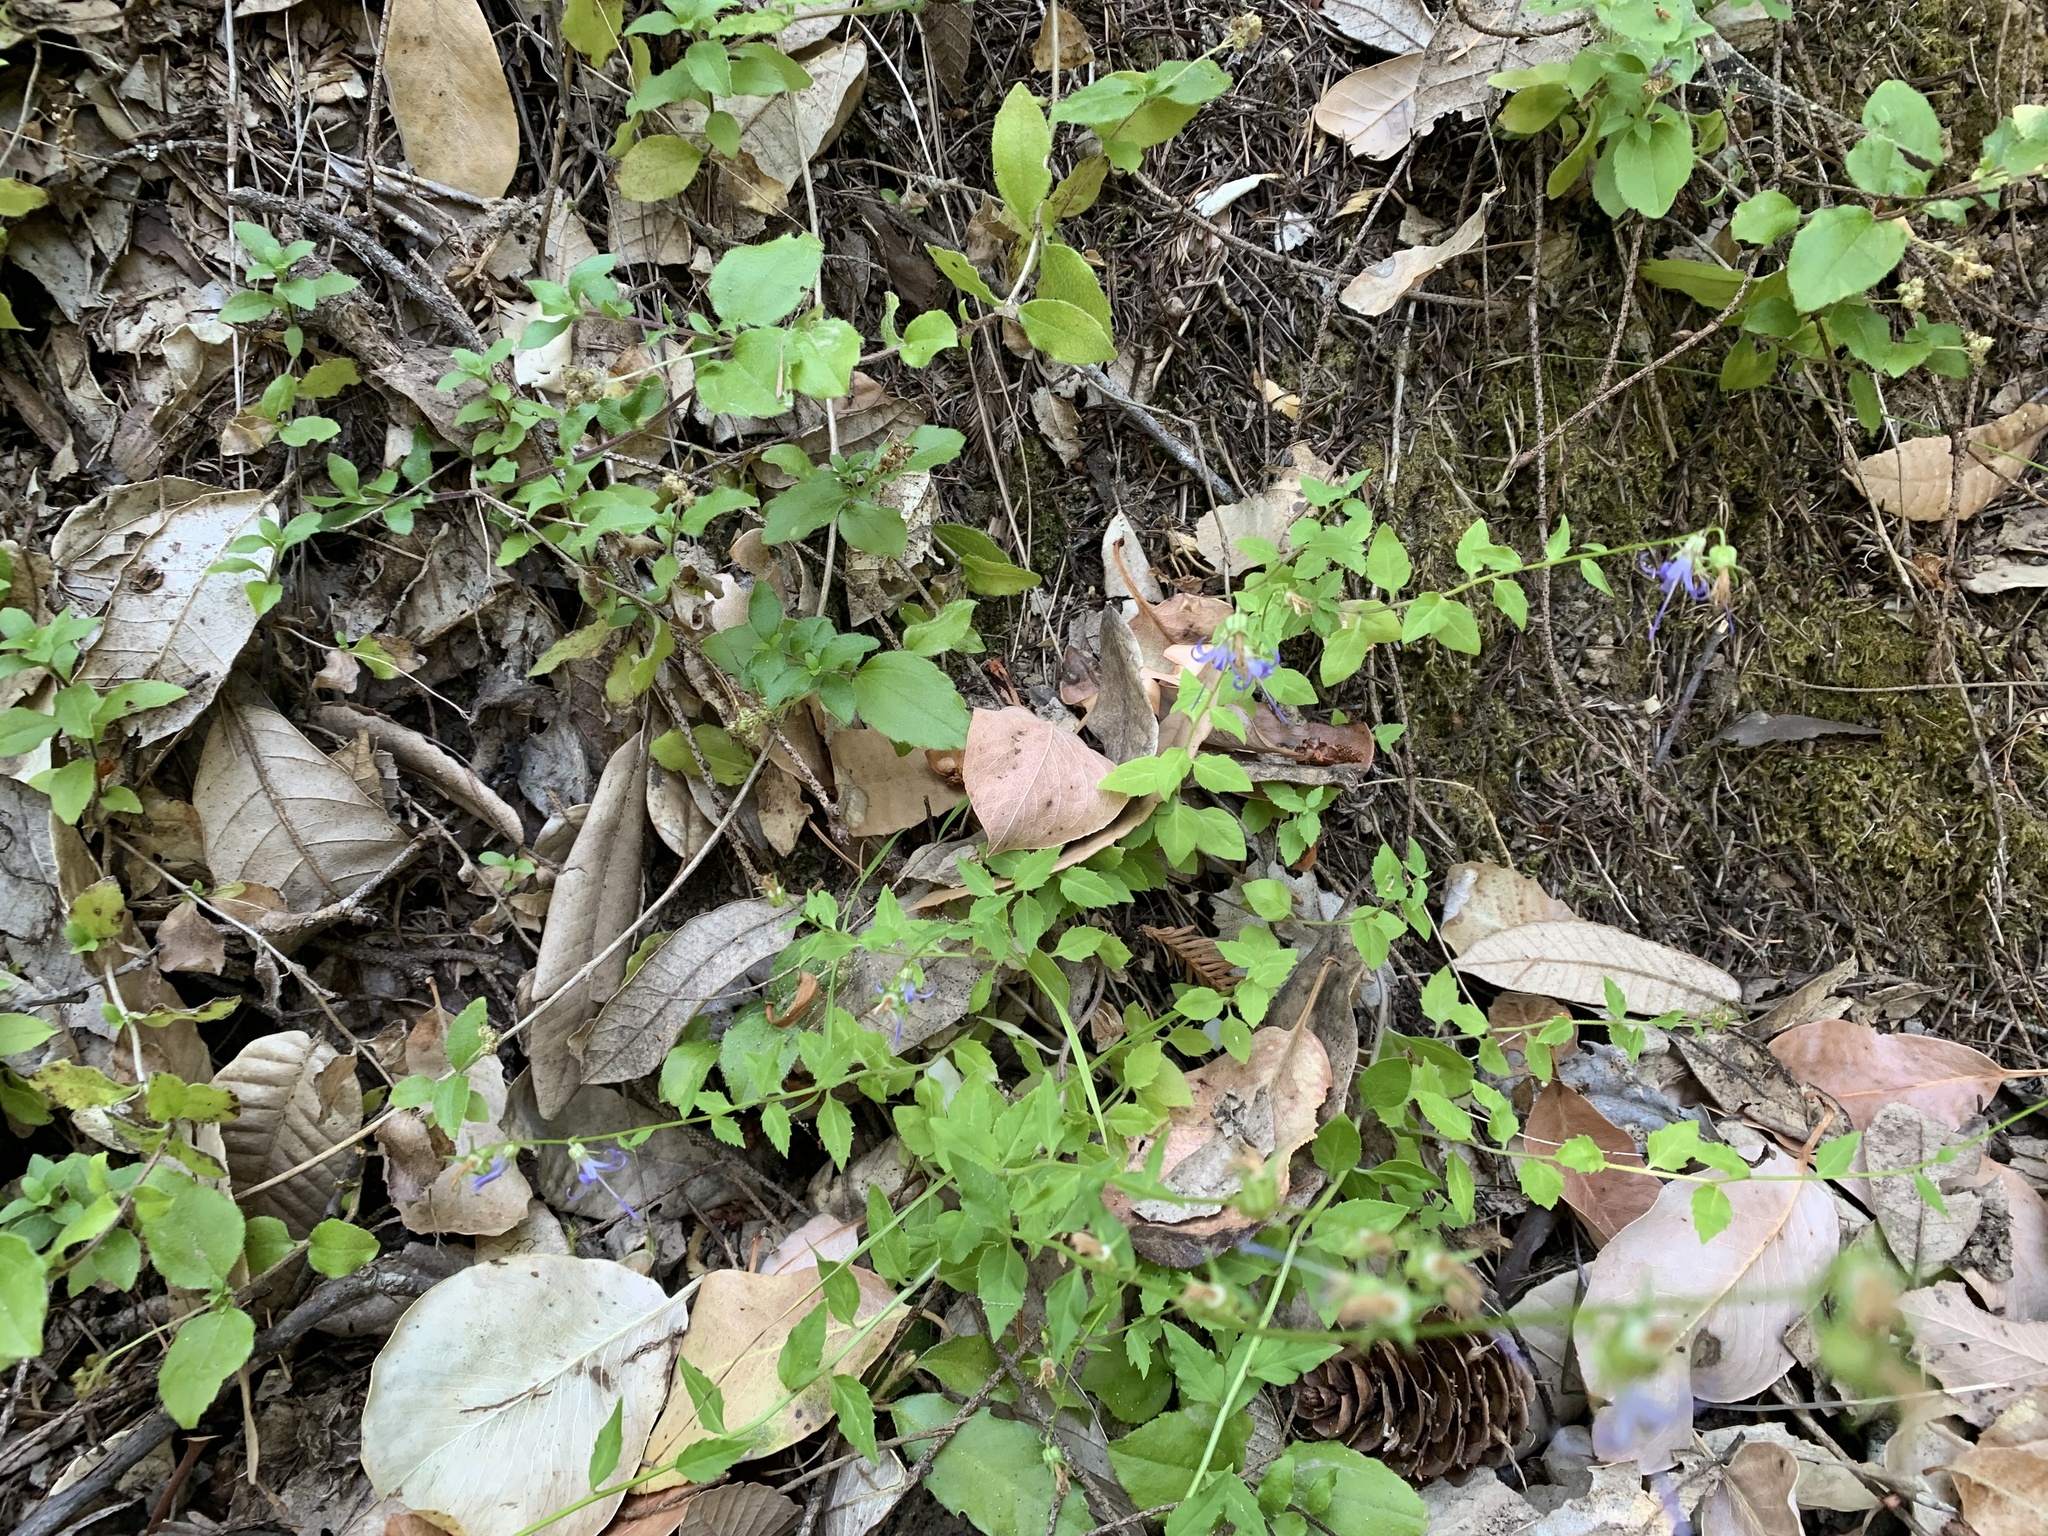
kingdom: Plantae
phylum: Tracheophyta
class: Magnoliopsida
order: Asterales
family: Campanulaceae
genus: Smithiastrum
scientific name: Smithiastrum prenanthoides
